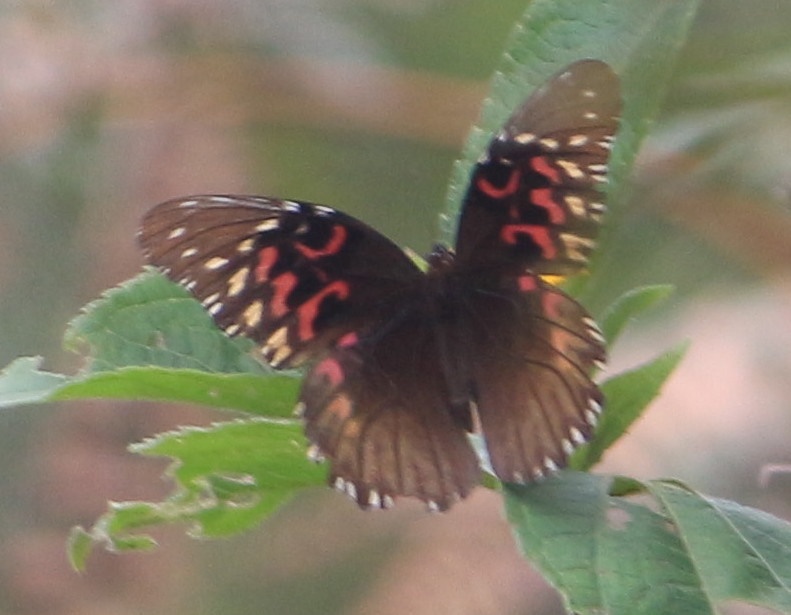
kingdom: Animalia
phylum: Arthropoda
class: Insecta
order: Lepidoptera
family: Nymphalidae
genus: Anetia
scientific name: Anetia thirza
